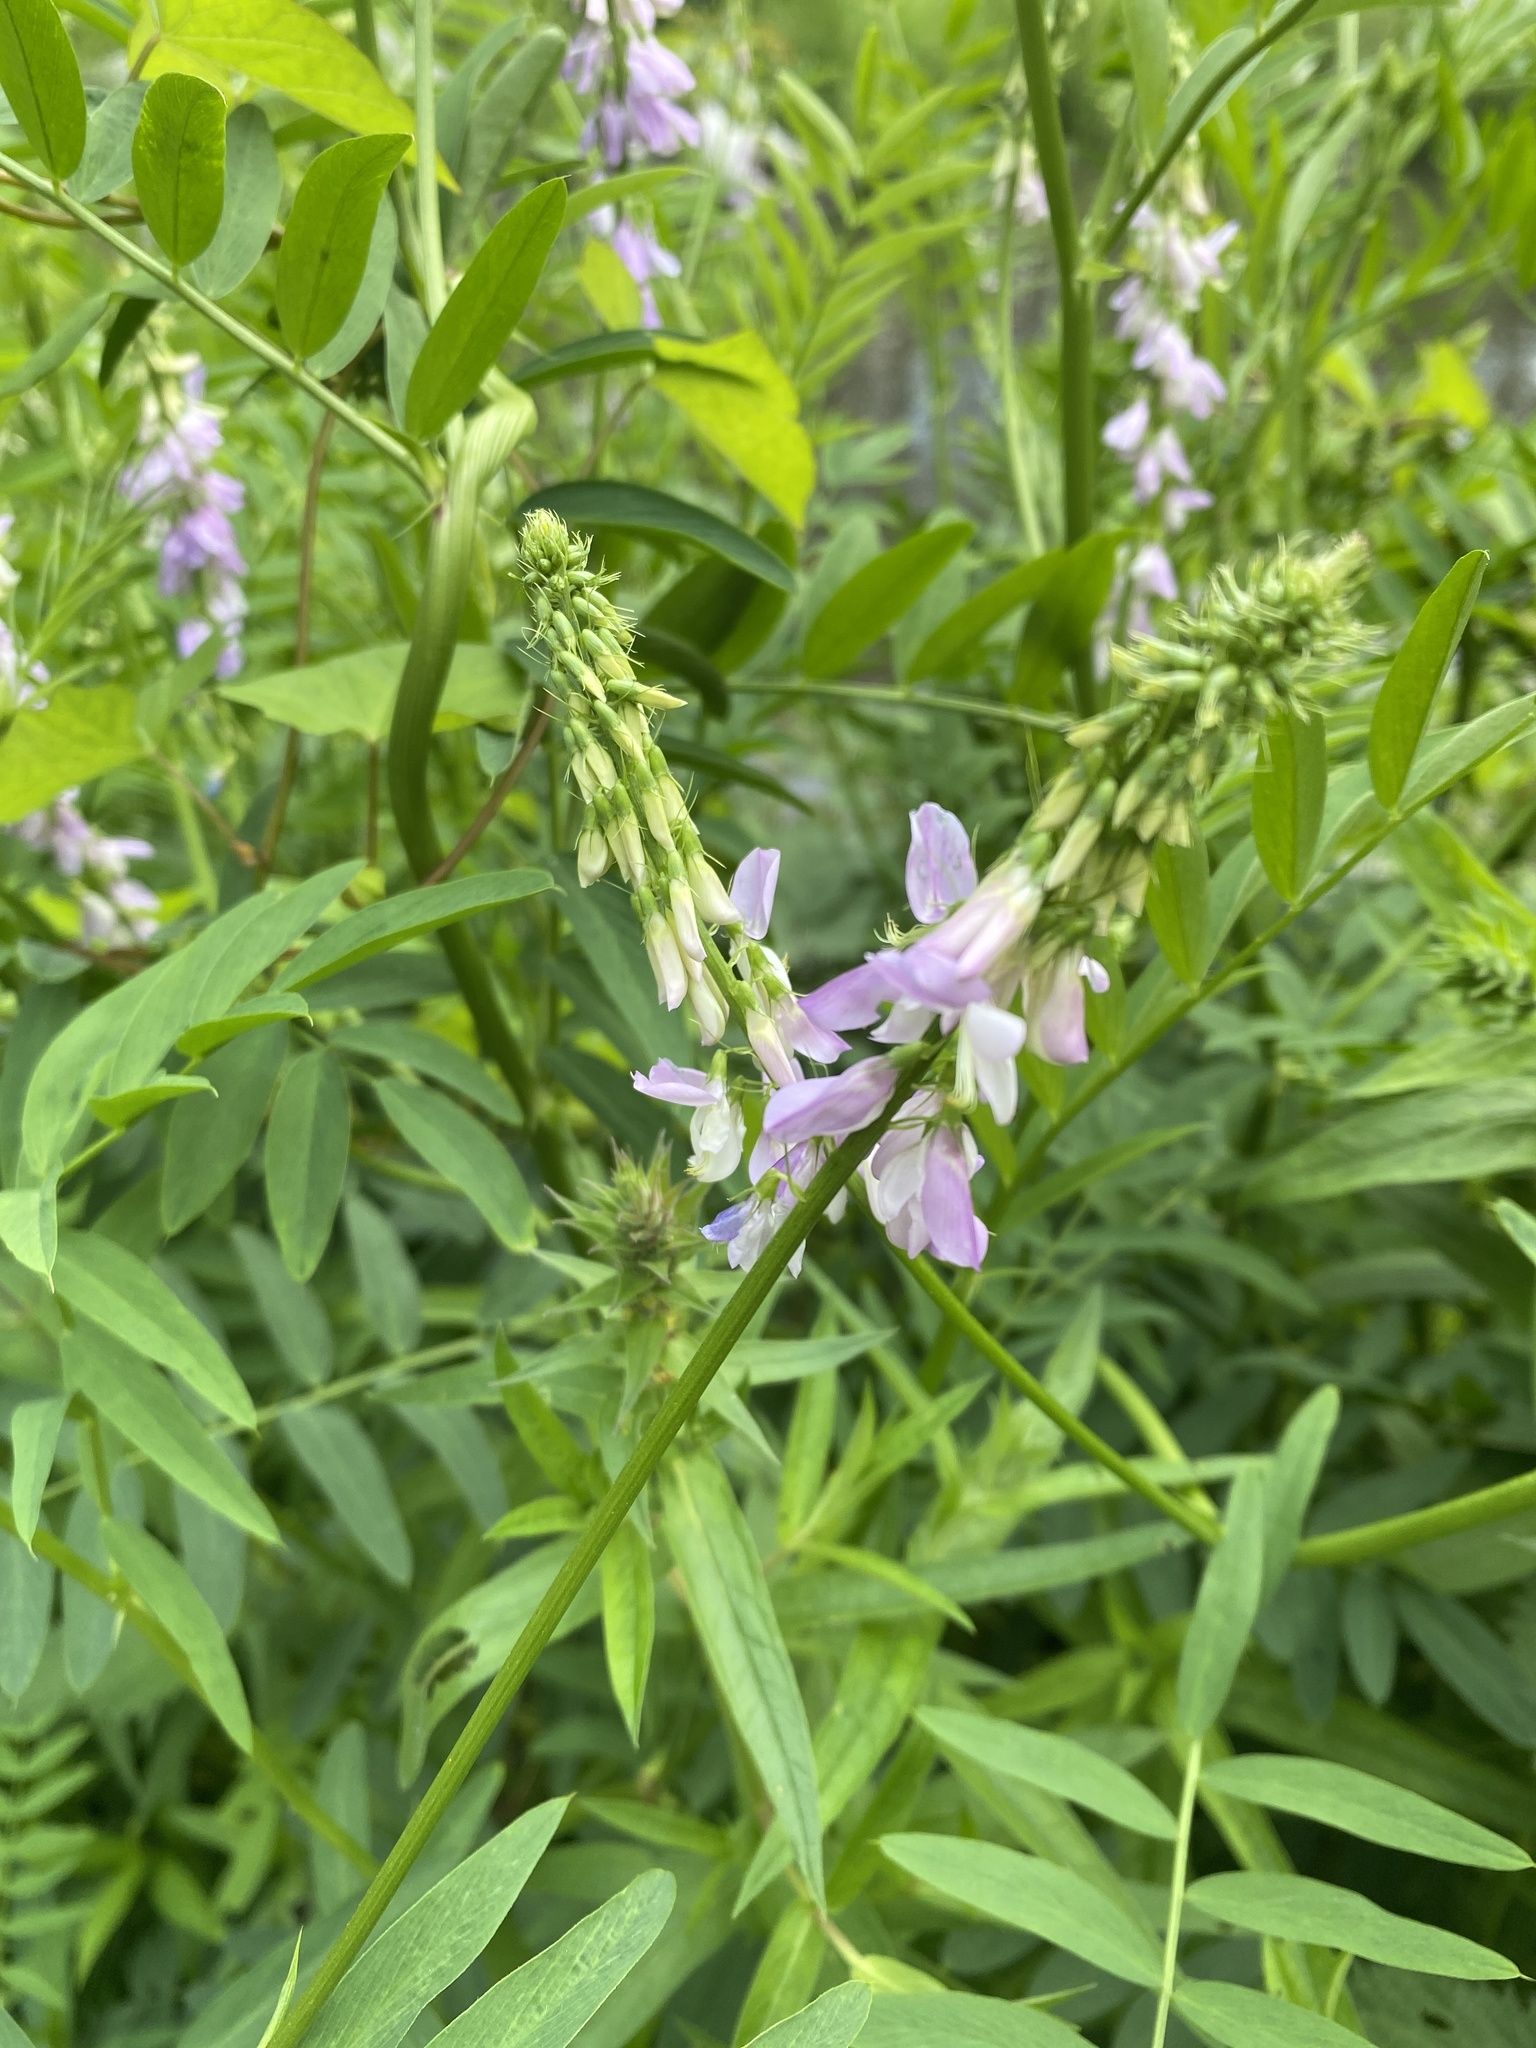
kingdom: Plantae
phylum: Tracheophyta
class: Magnoliopsida
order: Fabales
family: Fabaceae
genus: Galega
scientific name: Galega officinalis
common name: Goat's-rue
